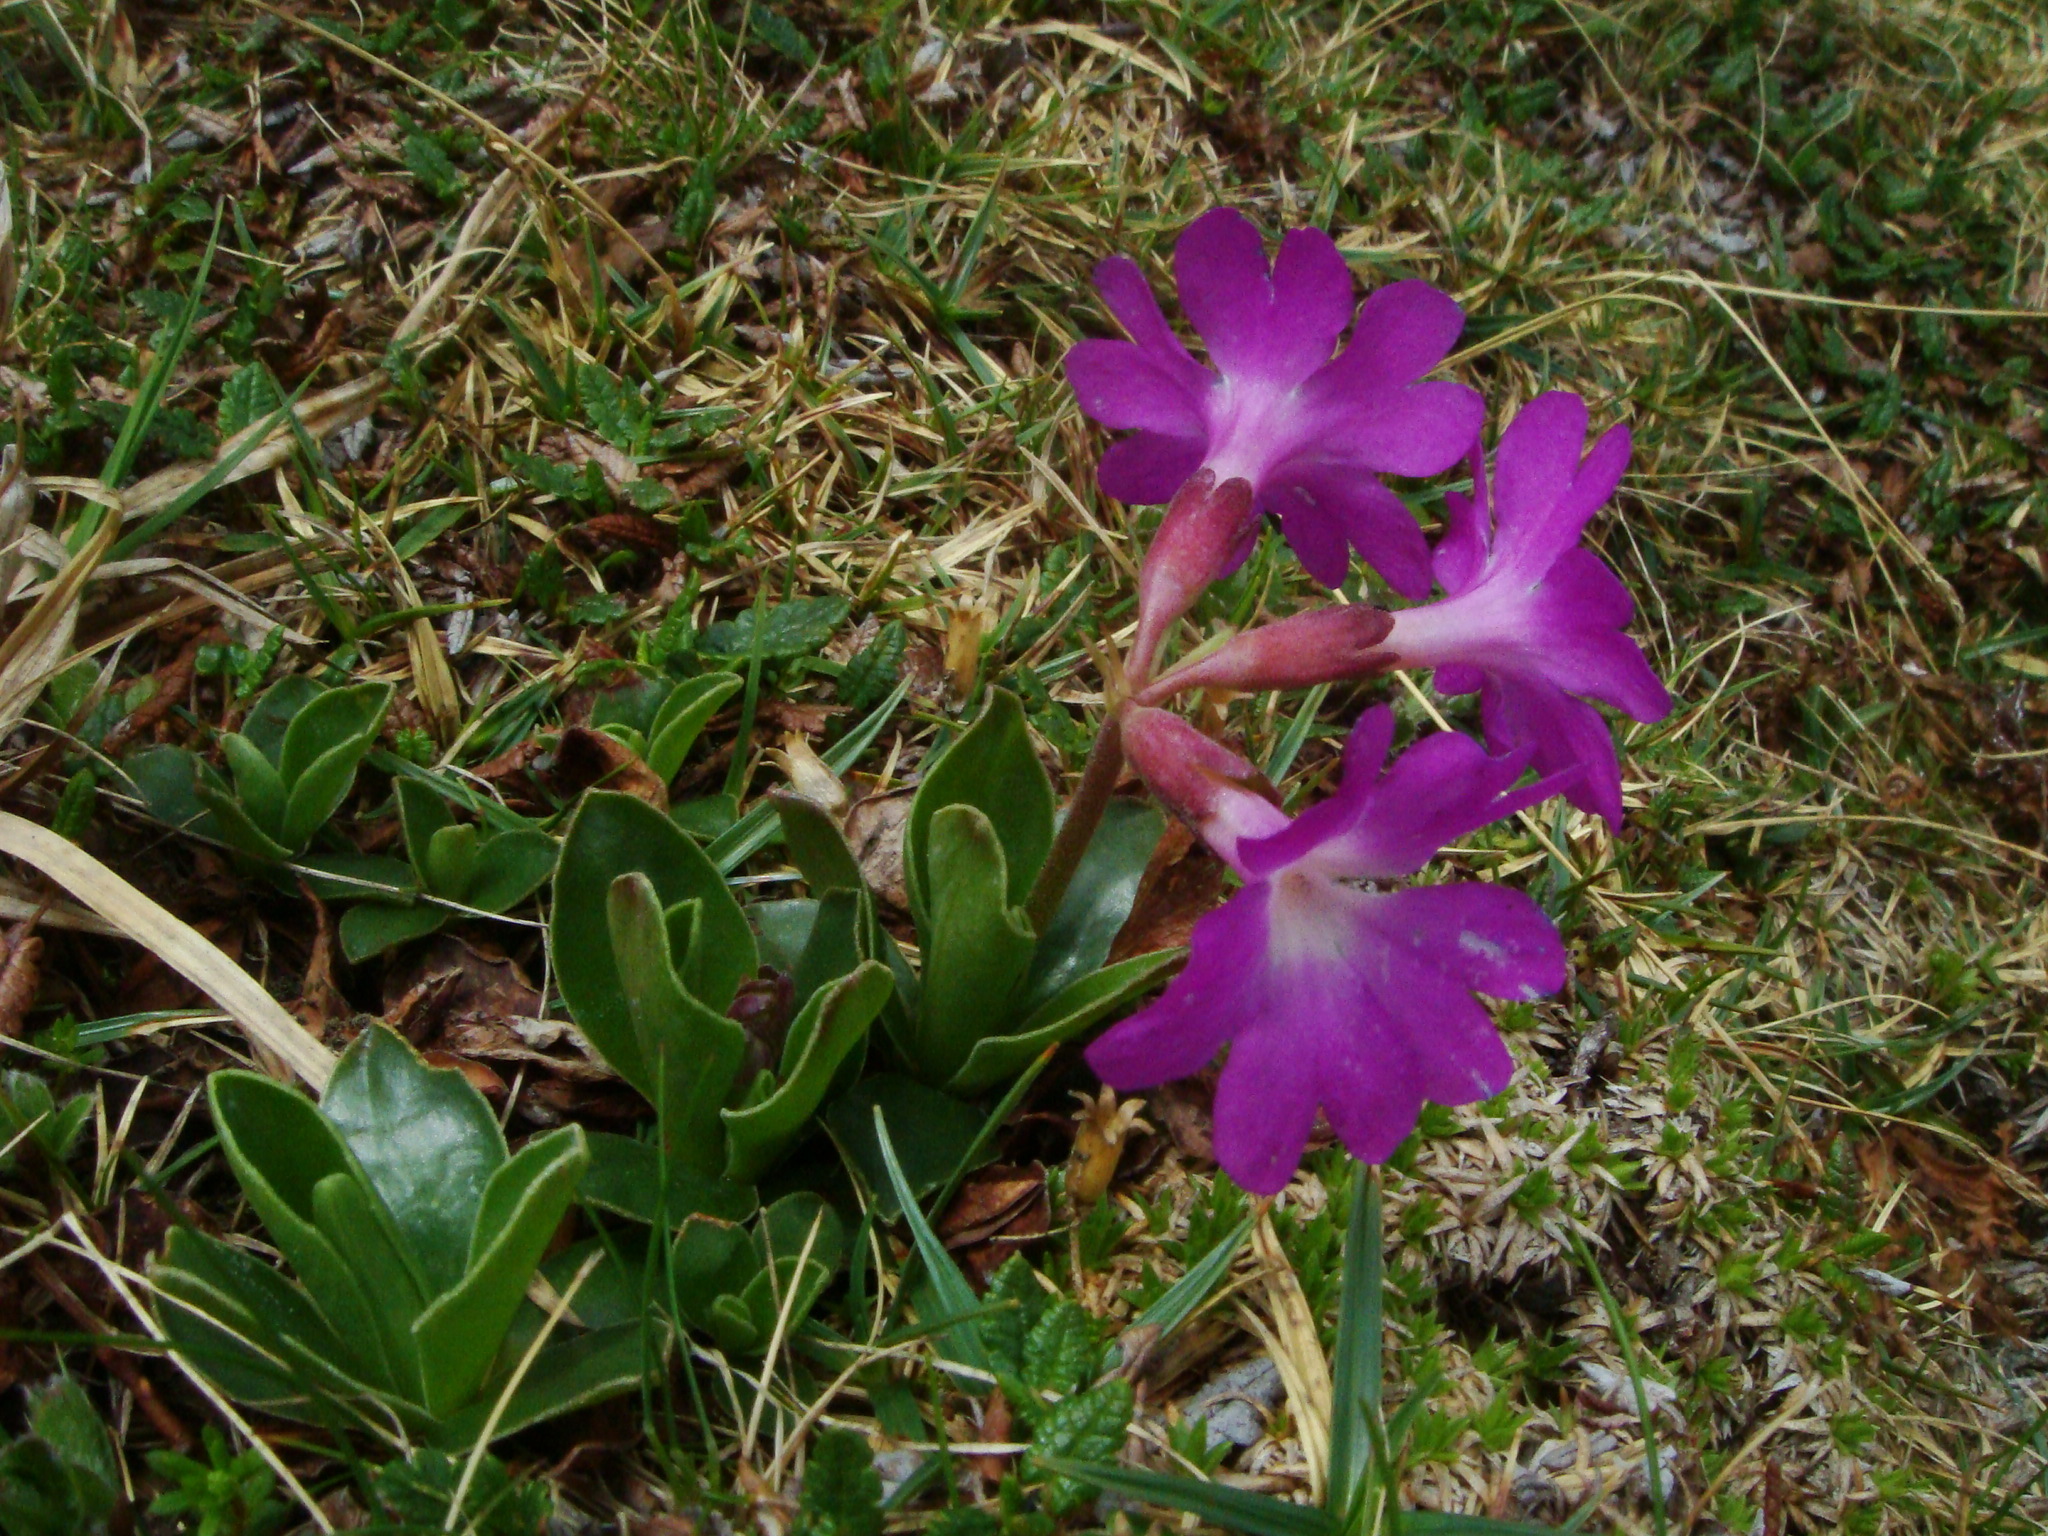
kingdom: Plantae
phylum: Tracheophyta
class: Magnoliopsida
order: Ericales
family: Primulaceae
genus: Primula
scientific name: Primula clusiana
